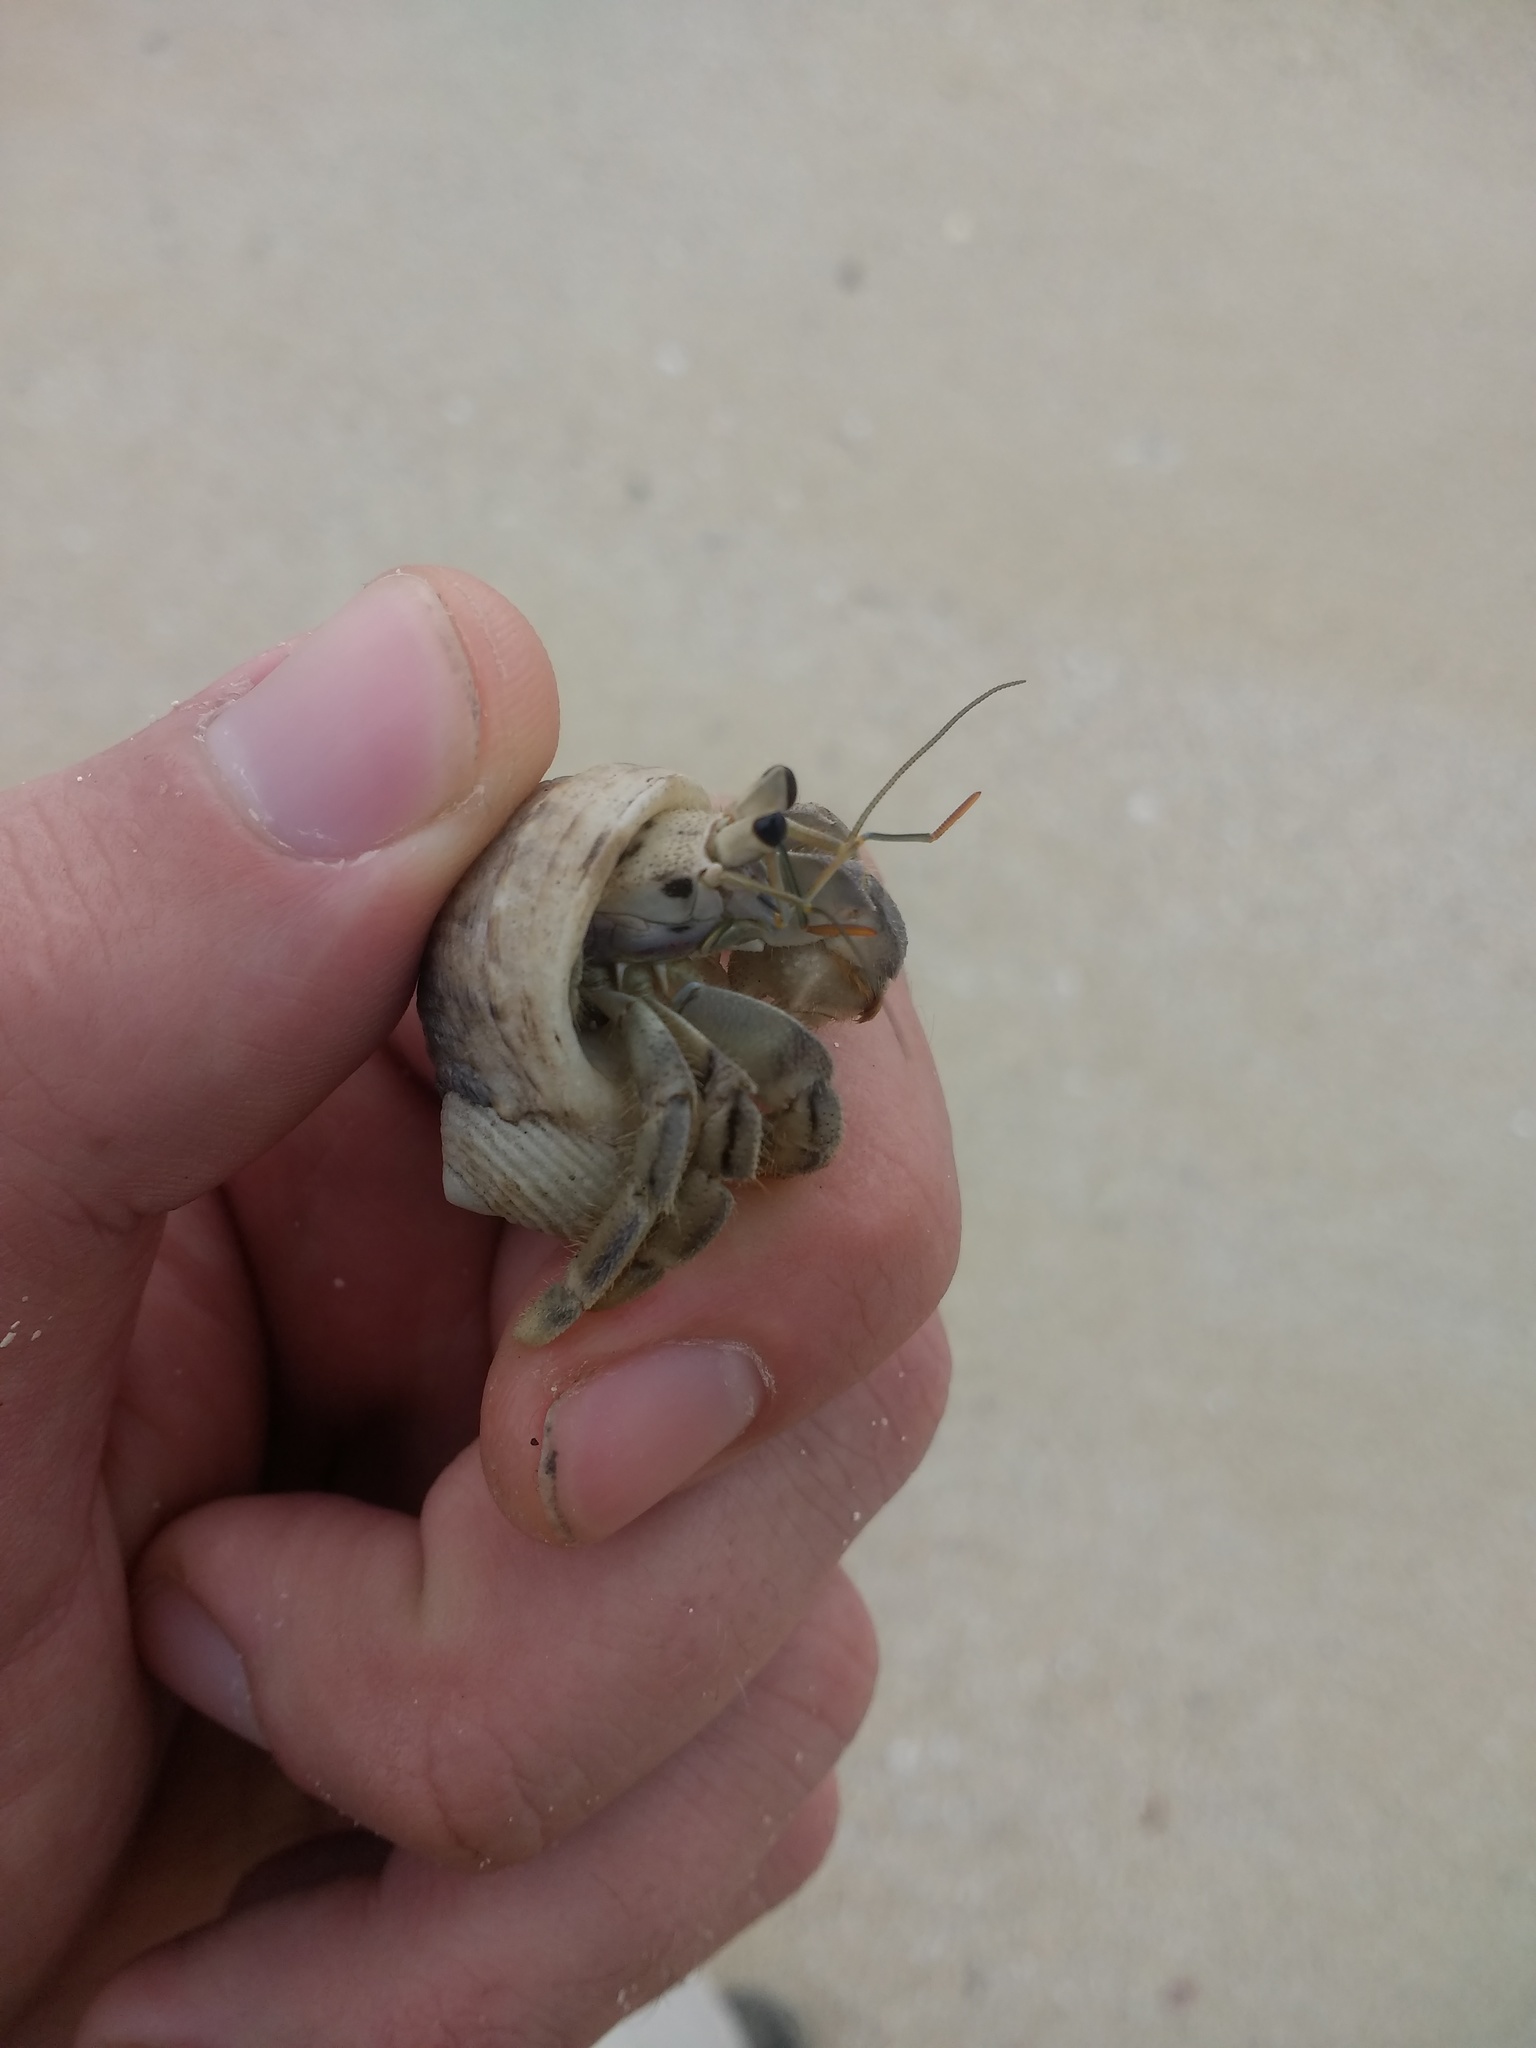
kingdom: Animalia
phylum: Arthropoda
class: Malacostraca
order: Decapoda
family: Coenobitidae
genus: Coenobita
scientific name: Coenobita rugosus
